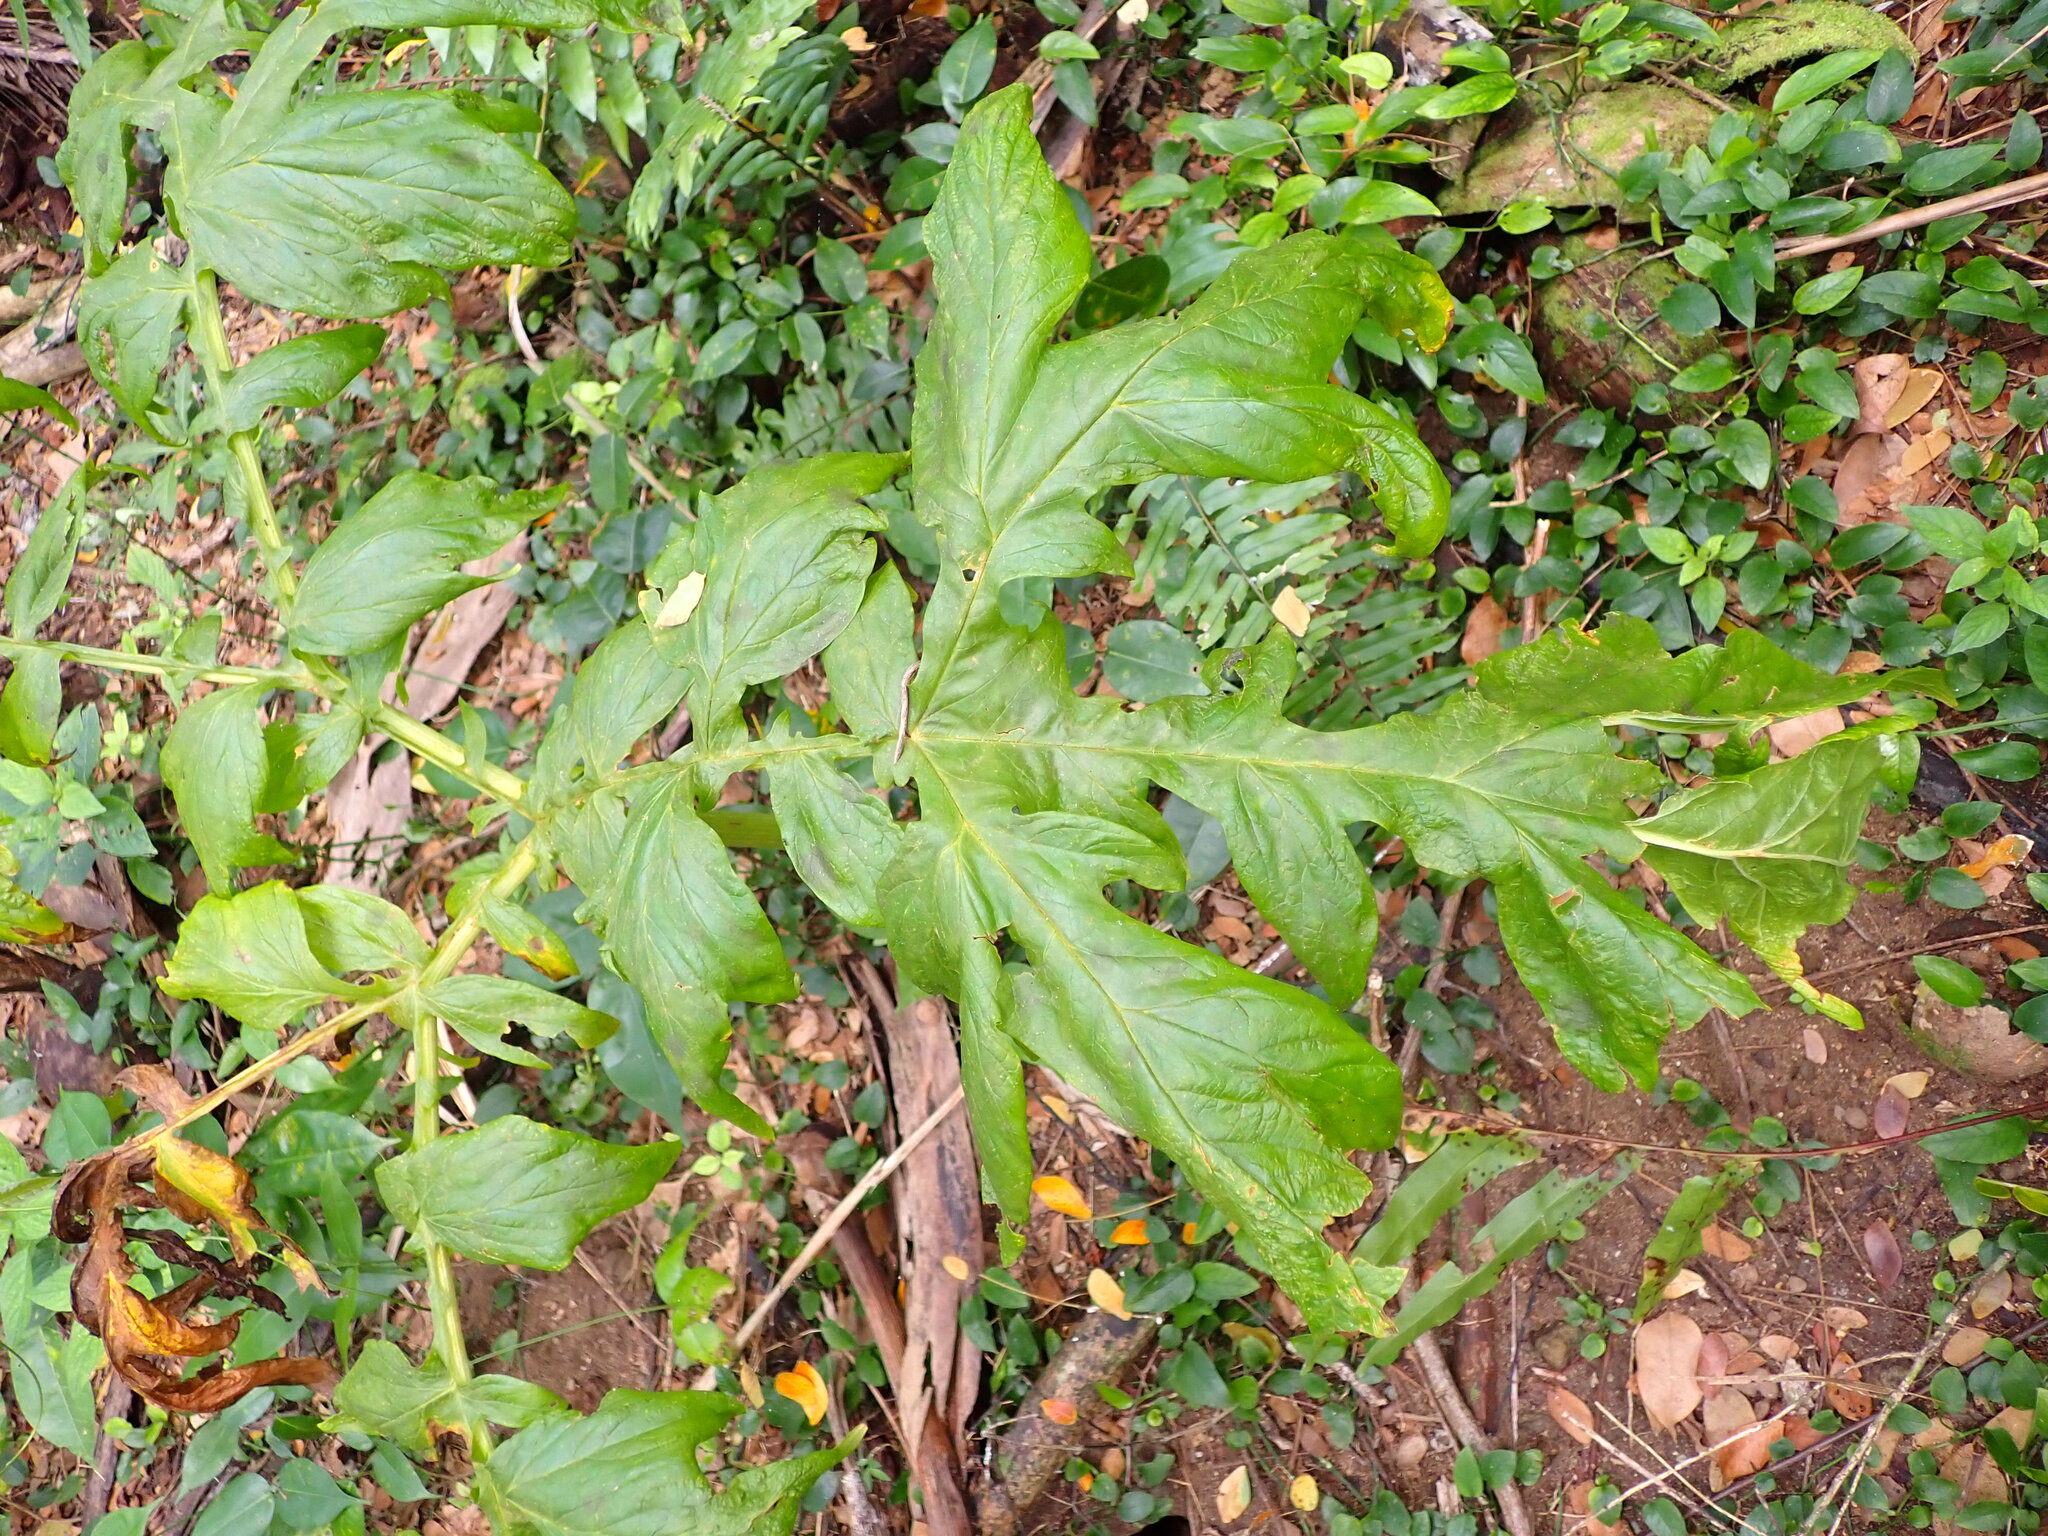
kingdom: Plantae
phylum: Tracheophyta
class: Liliopsida
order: Dioscoreales
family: Dioscoreaceae
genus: Tacca
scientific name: Tacca leontopetaloides
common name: Arrowroot
